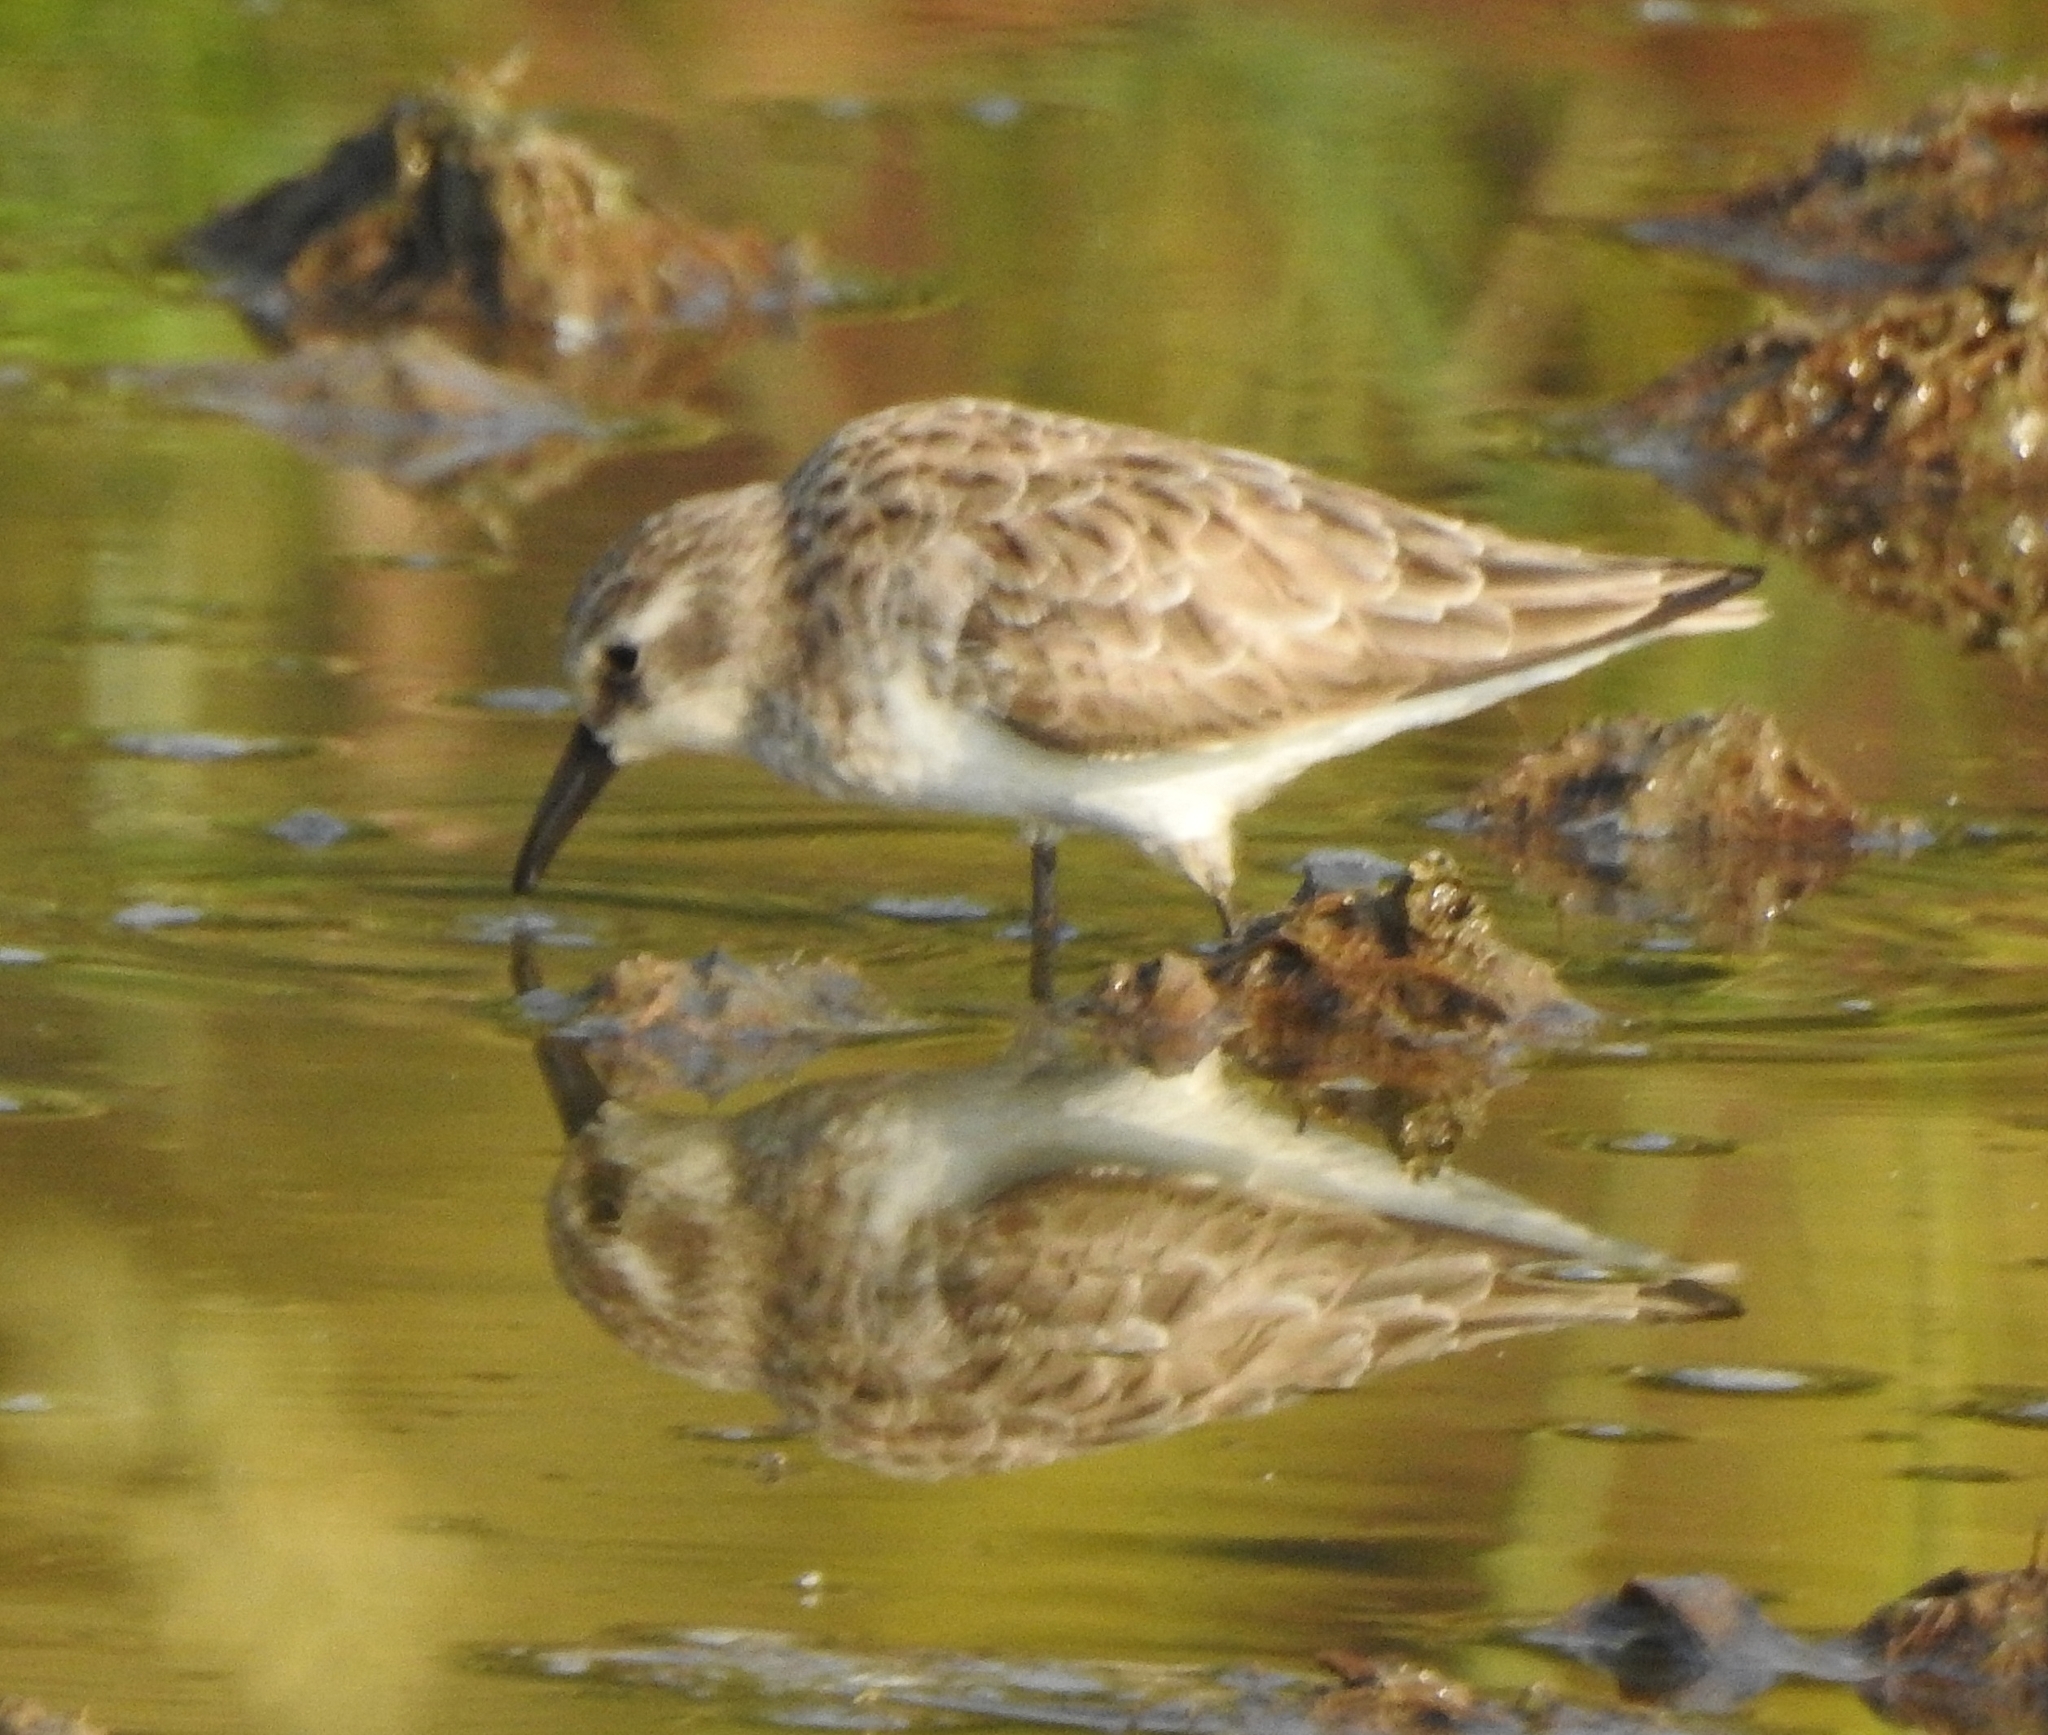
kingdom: Animalia
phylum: Chordata
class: Aves
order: Charadriiformes
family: Scolopacidae
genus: Calidris
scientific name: Calidris minuta
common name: Little stint
